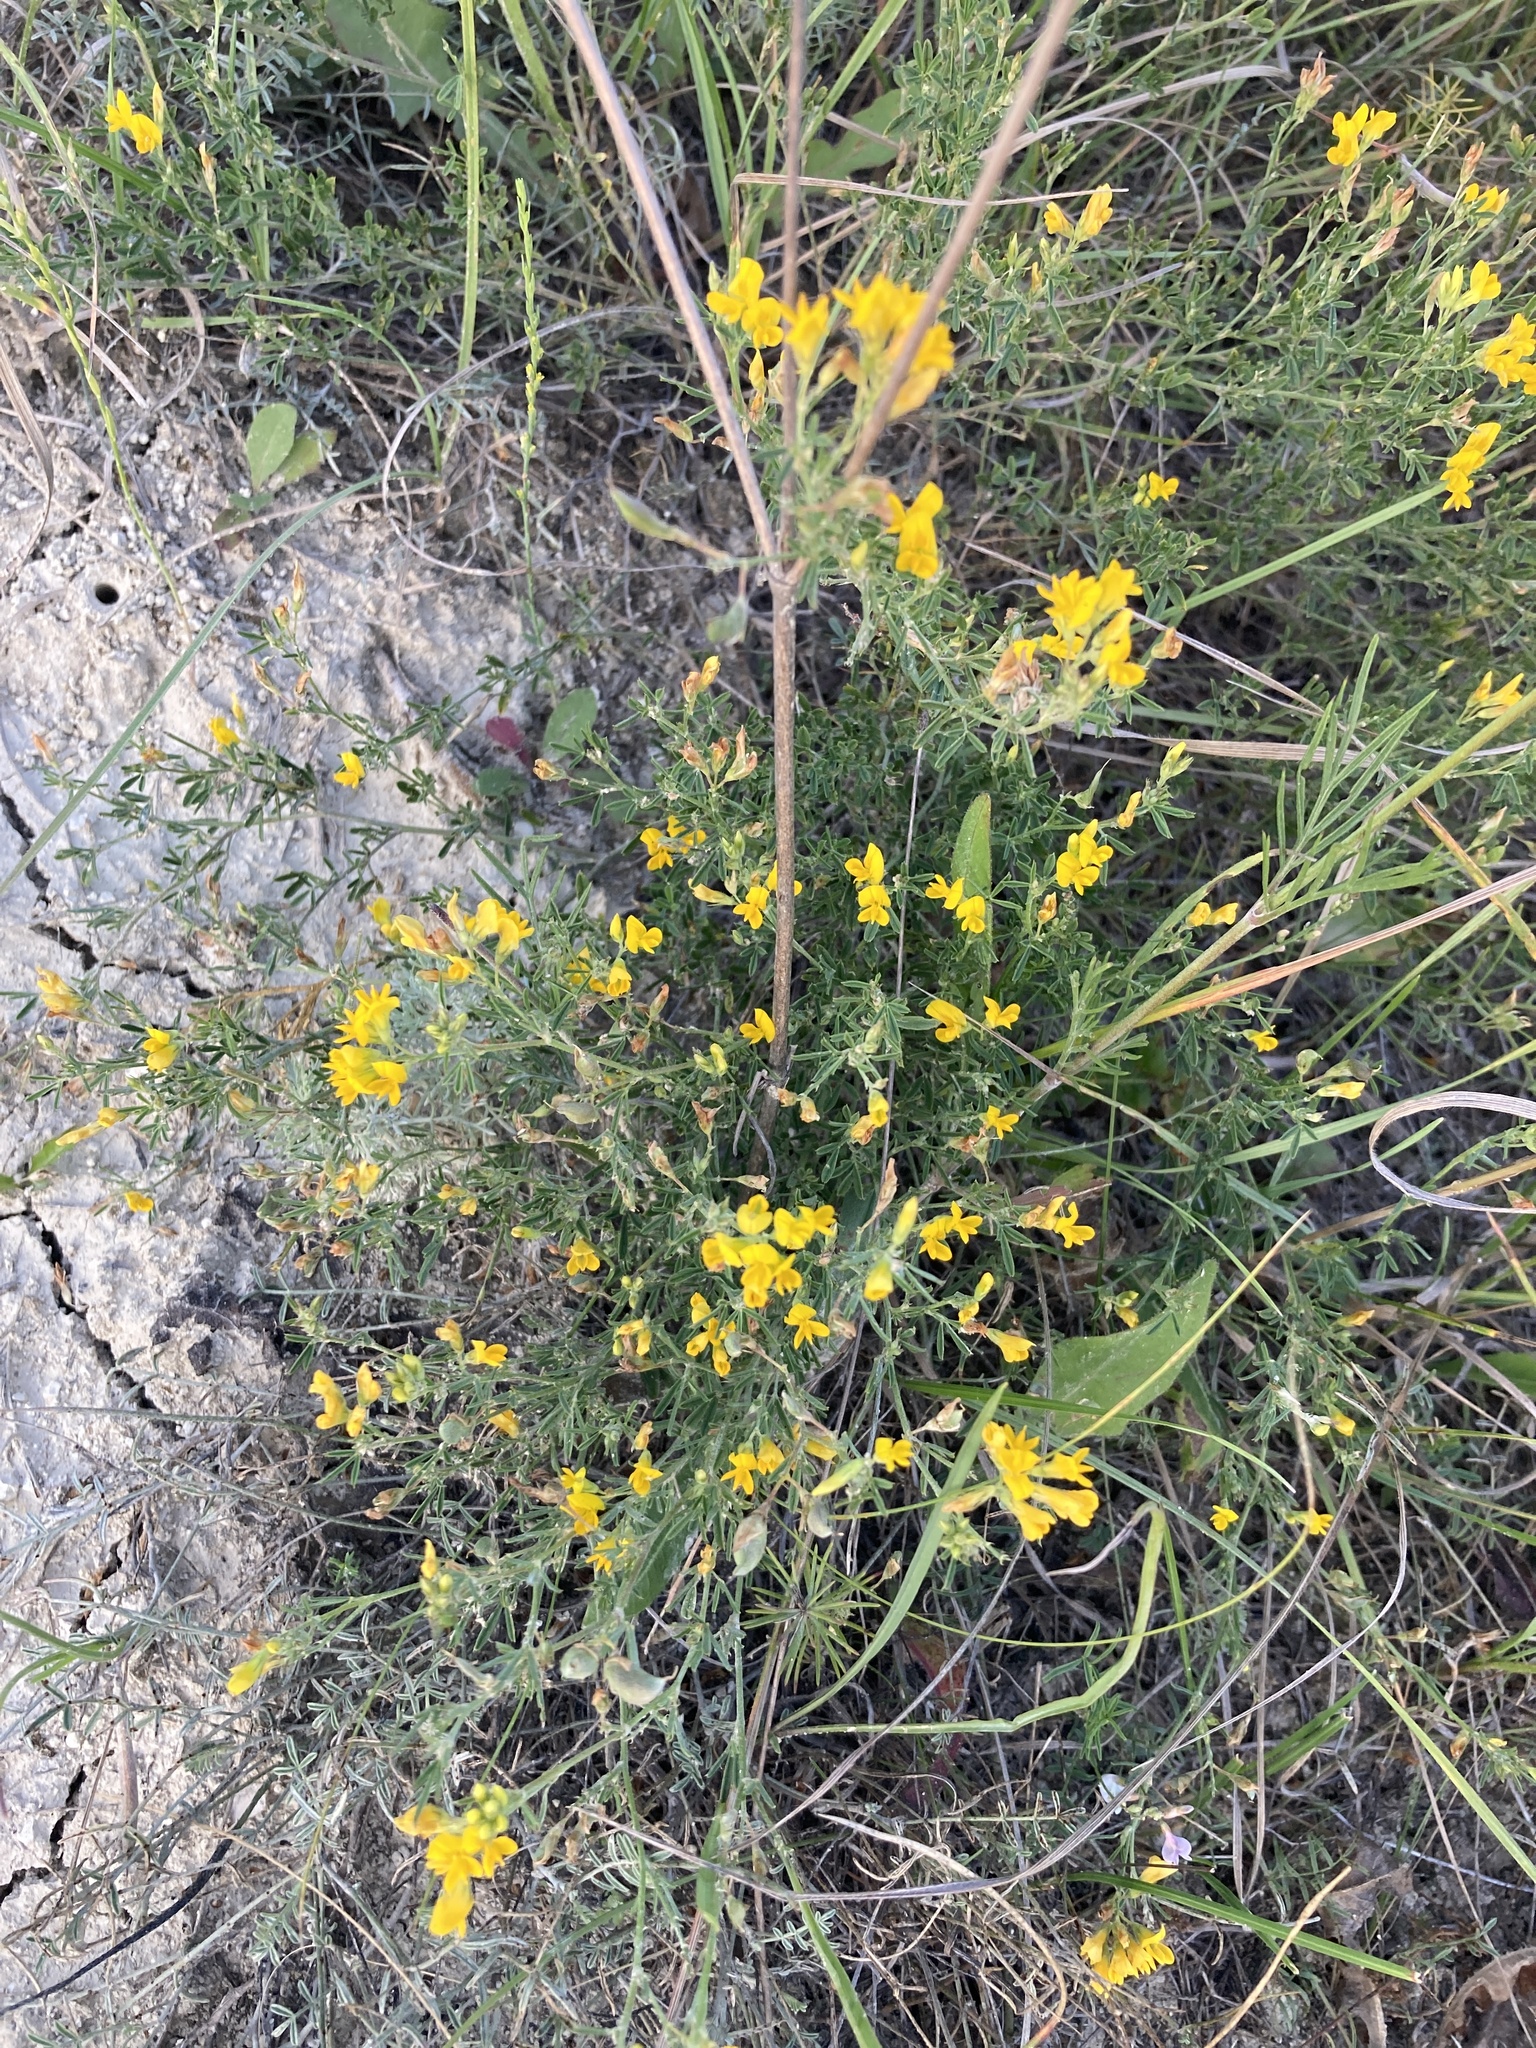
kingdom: Plantae
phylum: Tracheophyta
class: Magnoliopsida
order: Fabales
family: Fabaceae
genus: Medicago
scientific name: Medicago falcata
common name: Sickle medick
